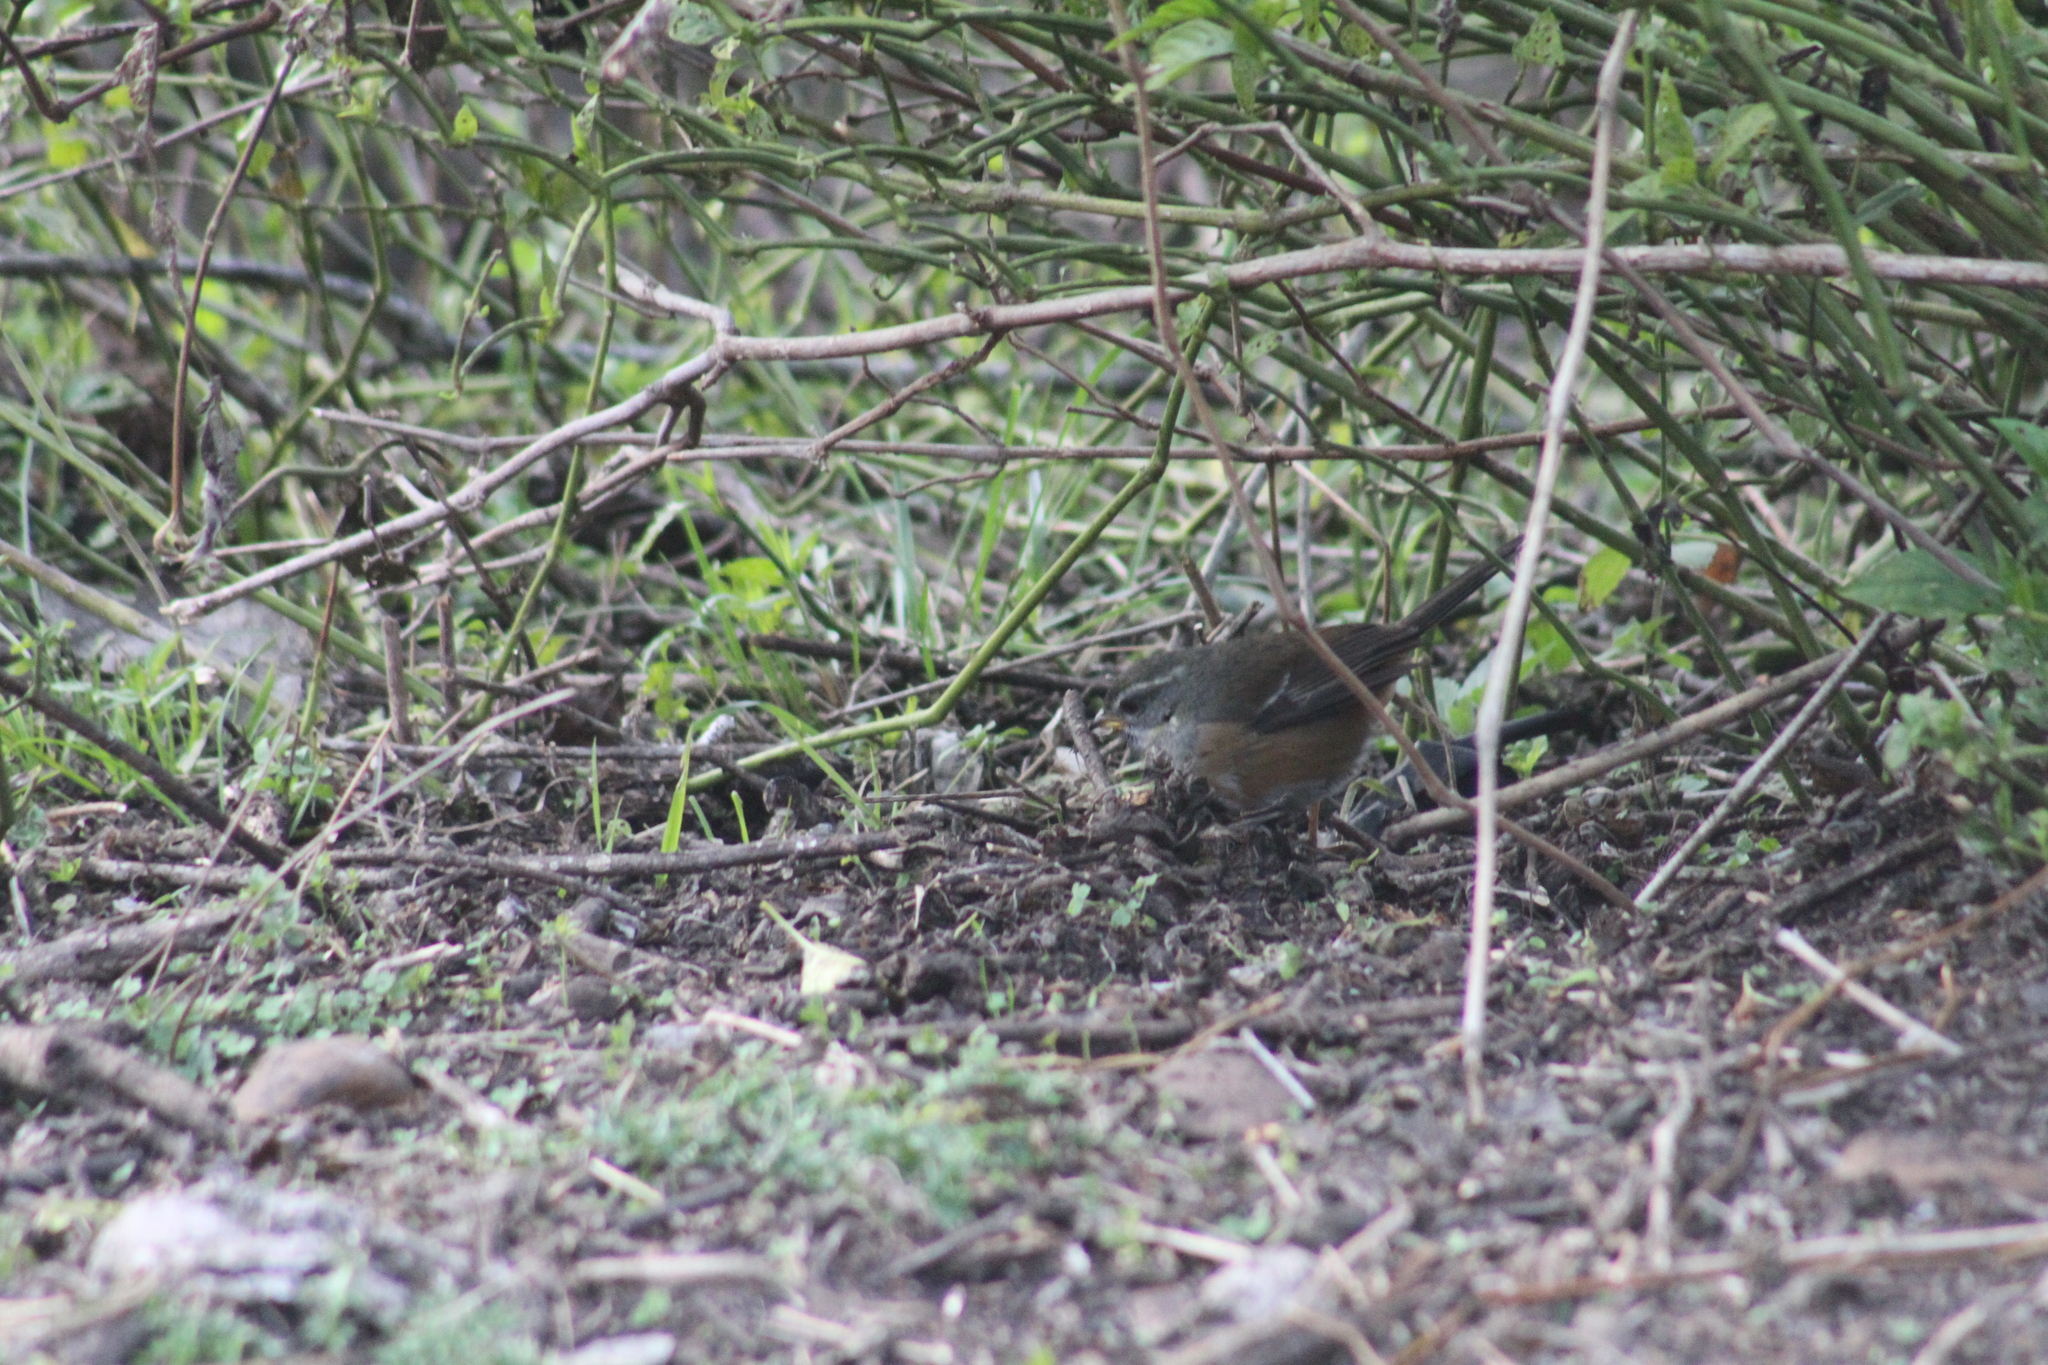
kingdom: Animalia
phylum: Chordata
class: Aves
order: Passeriformes
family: Thraupidae
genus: Microspingus
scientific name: Microspingus cabanisi
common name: Gray-throated warbling-finch
